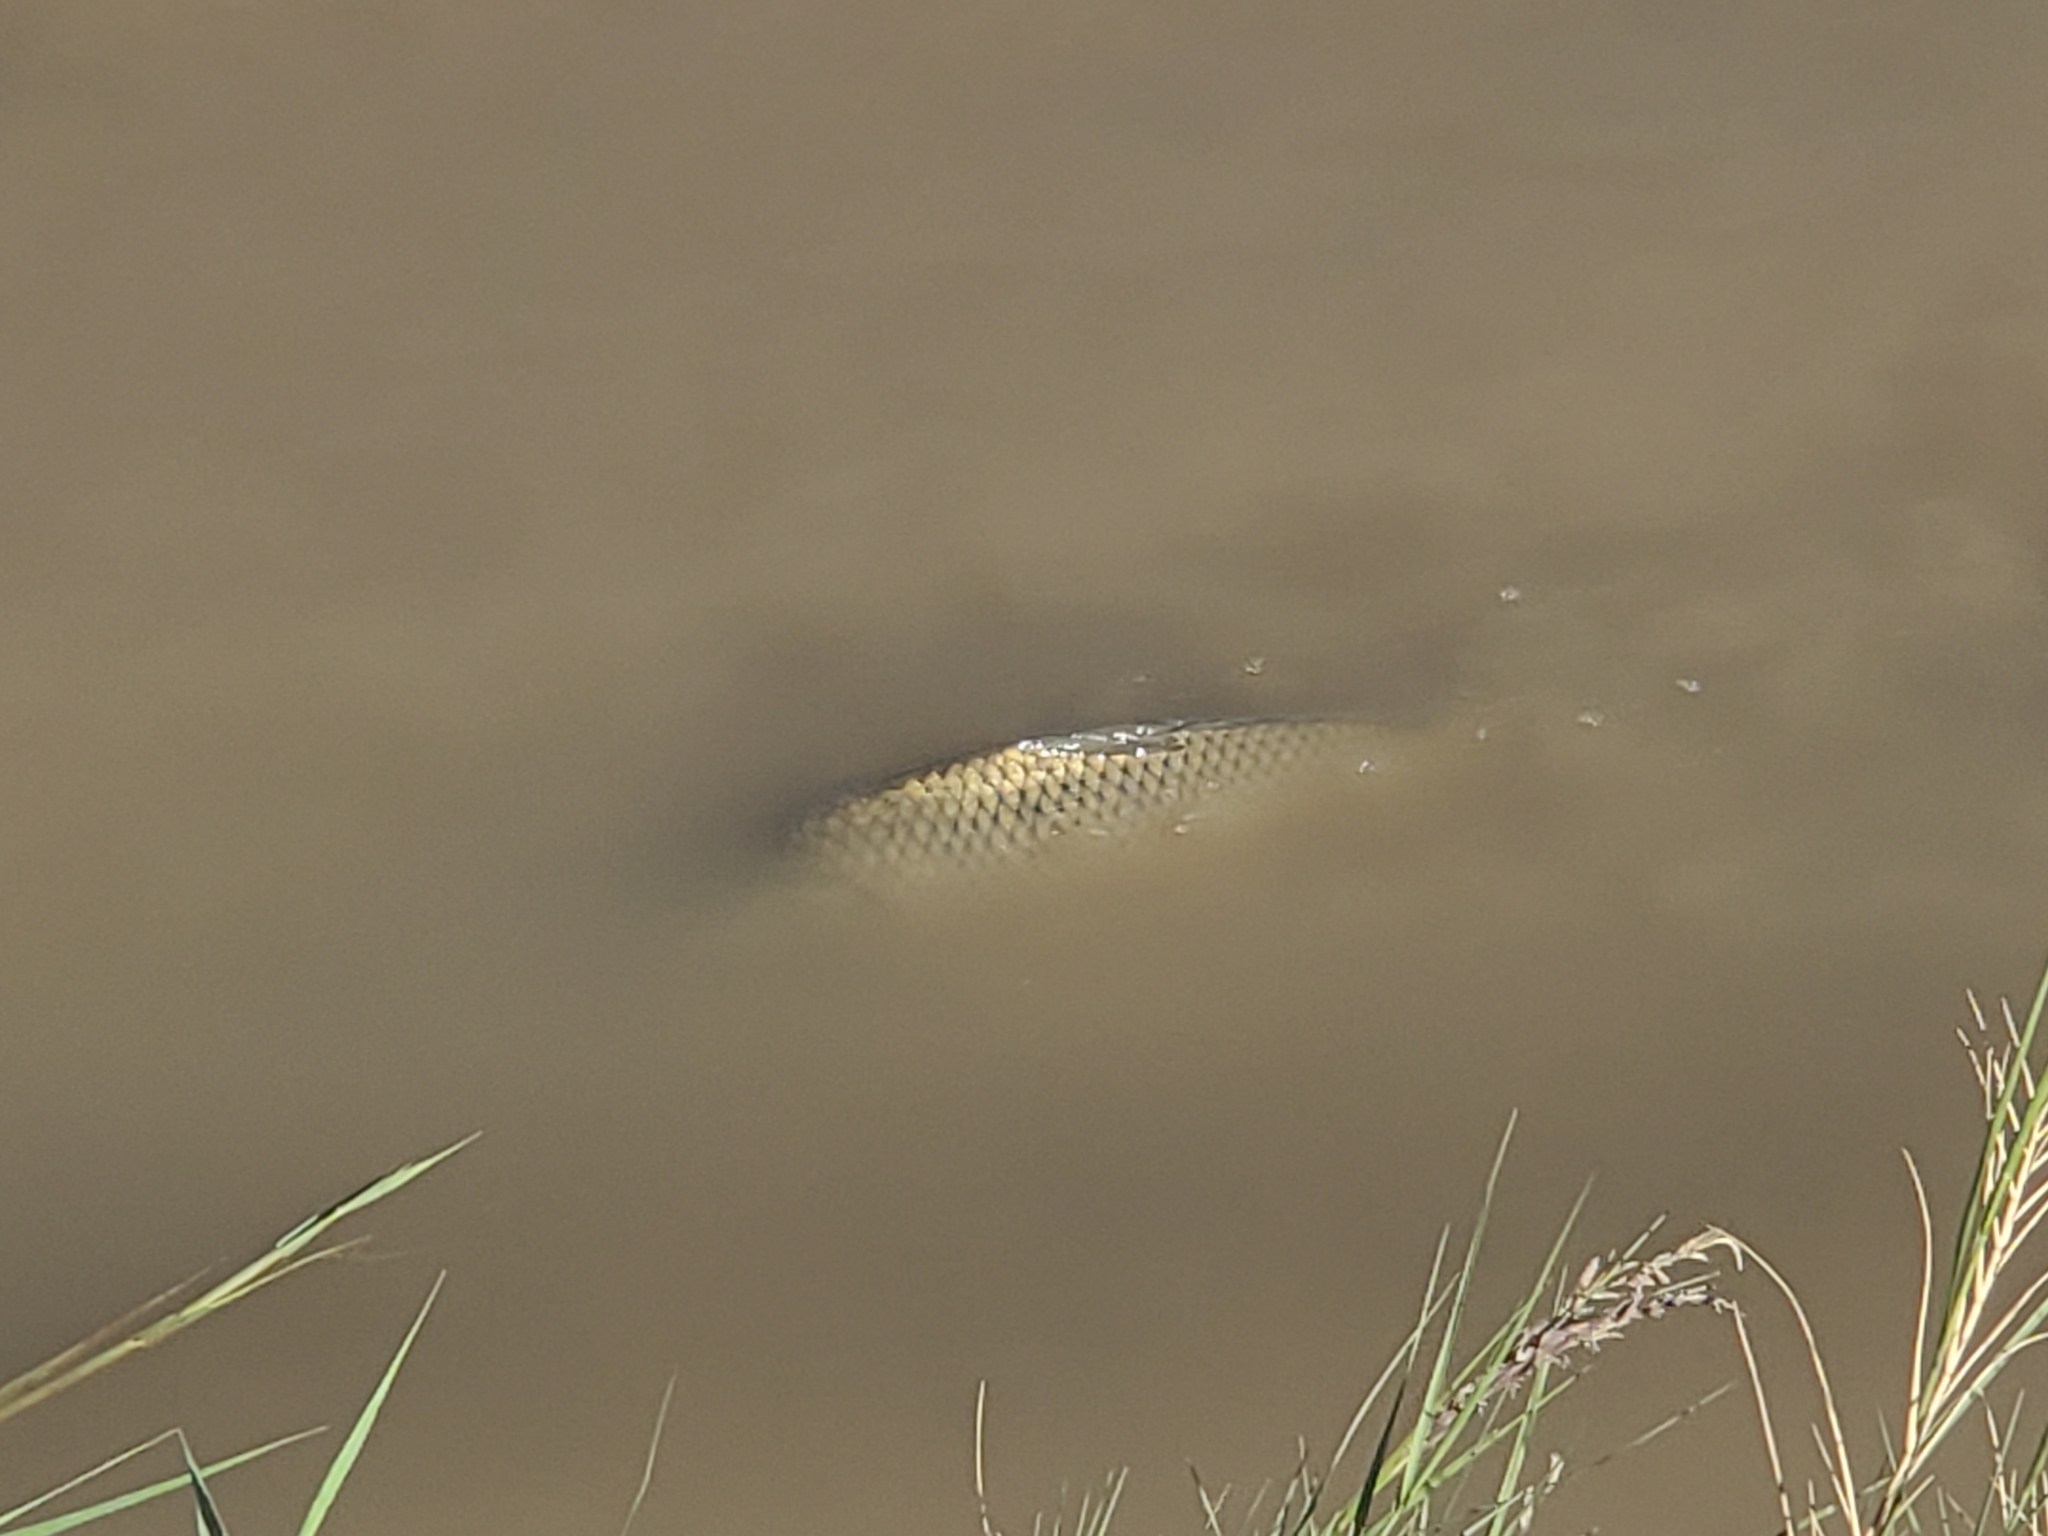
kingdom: Animalia
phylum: Chordata
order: Cypriniformes
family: Cyprinidae
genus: Cyprinus
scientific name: Cyprinus carpio
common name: Common carp
